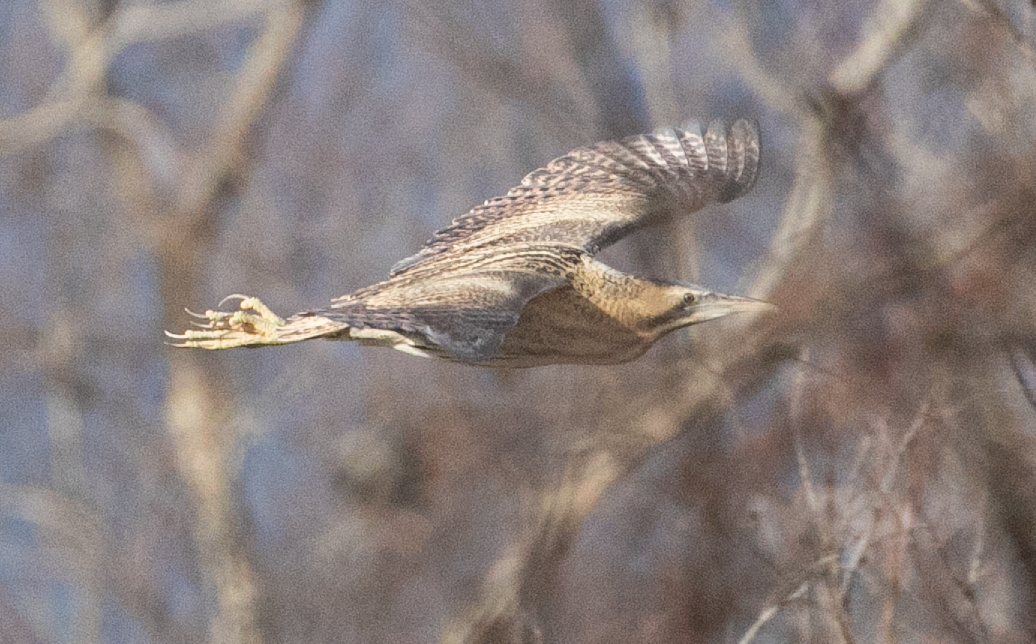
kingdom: Animalia
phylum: Chordata
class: Aves
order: Pelecaniformes
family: Ardeidae
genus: Botaurus
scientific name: Botaurus stellaris
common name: Eurasian bittern
